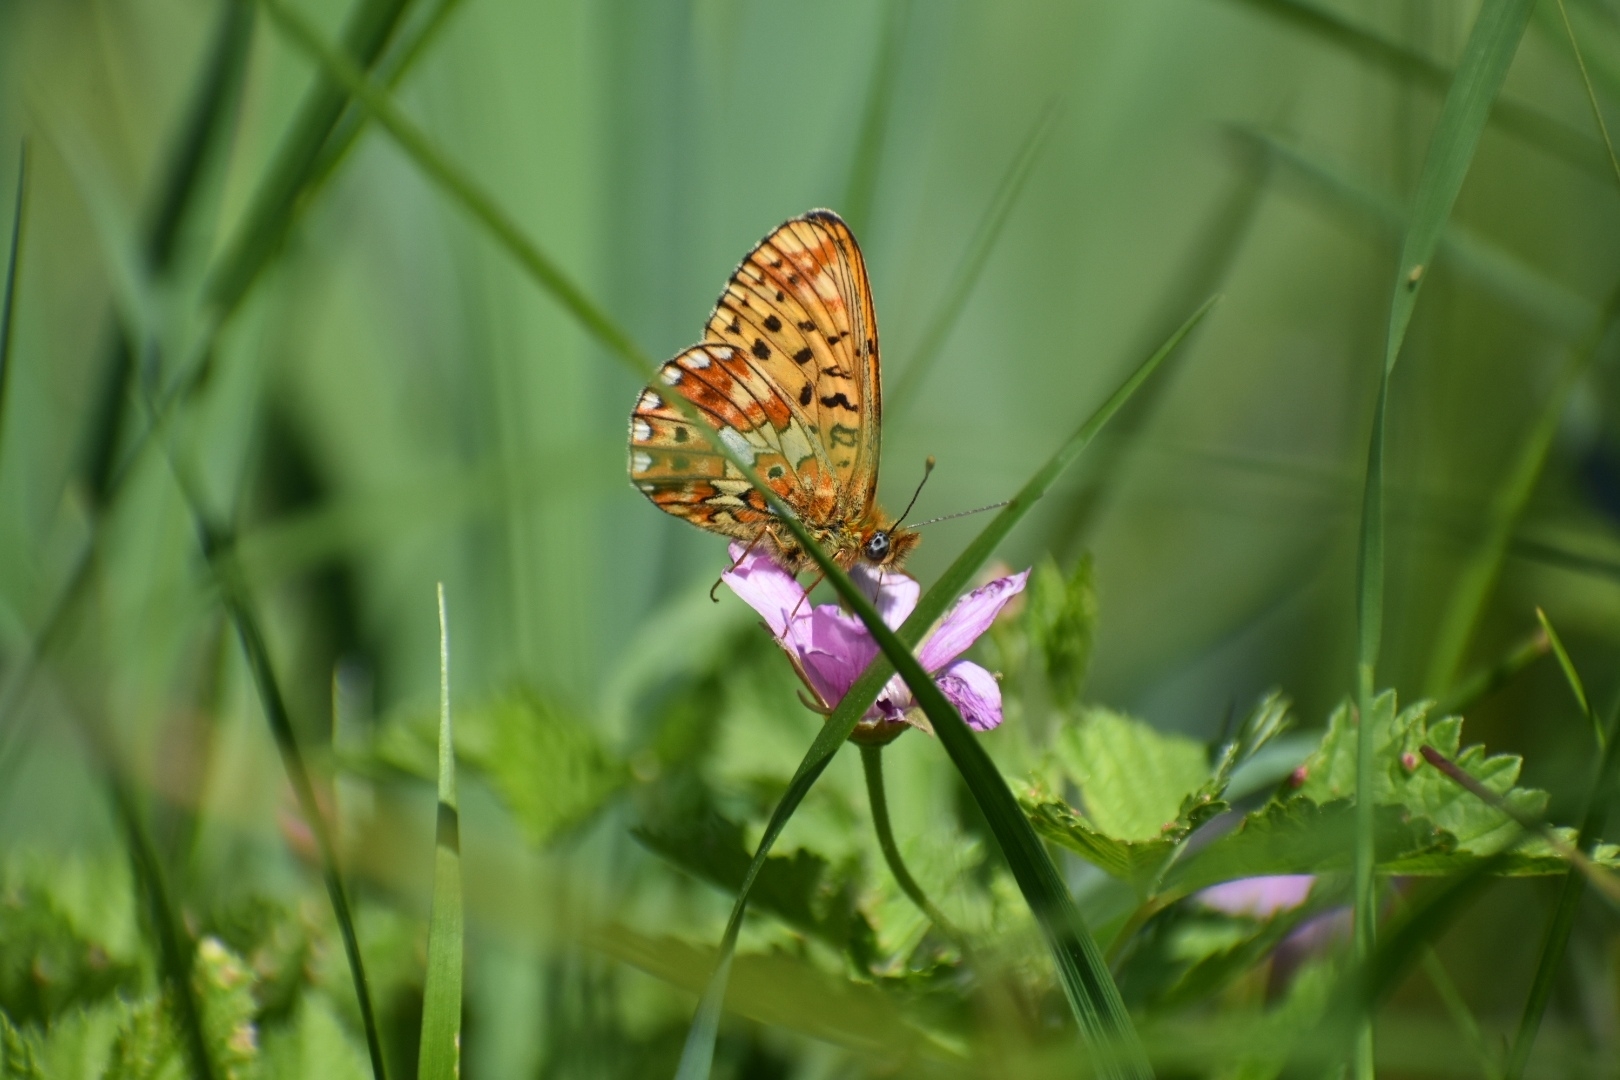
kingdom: Animalia
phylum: Arthropoda
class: Insecta
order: Lepidoptera
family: Nymphalidae
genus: Clossiana
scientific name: Clossiana euphrosyne
